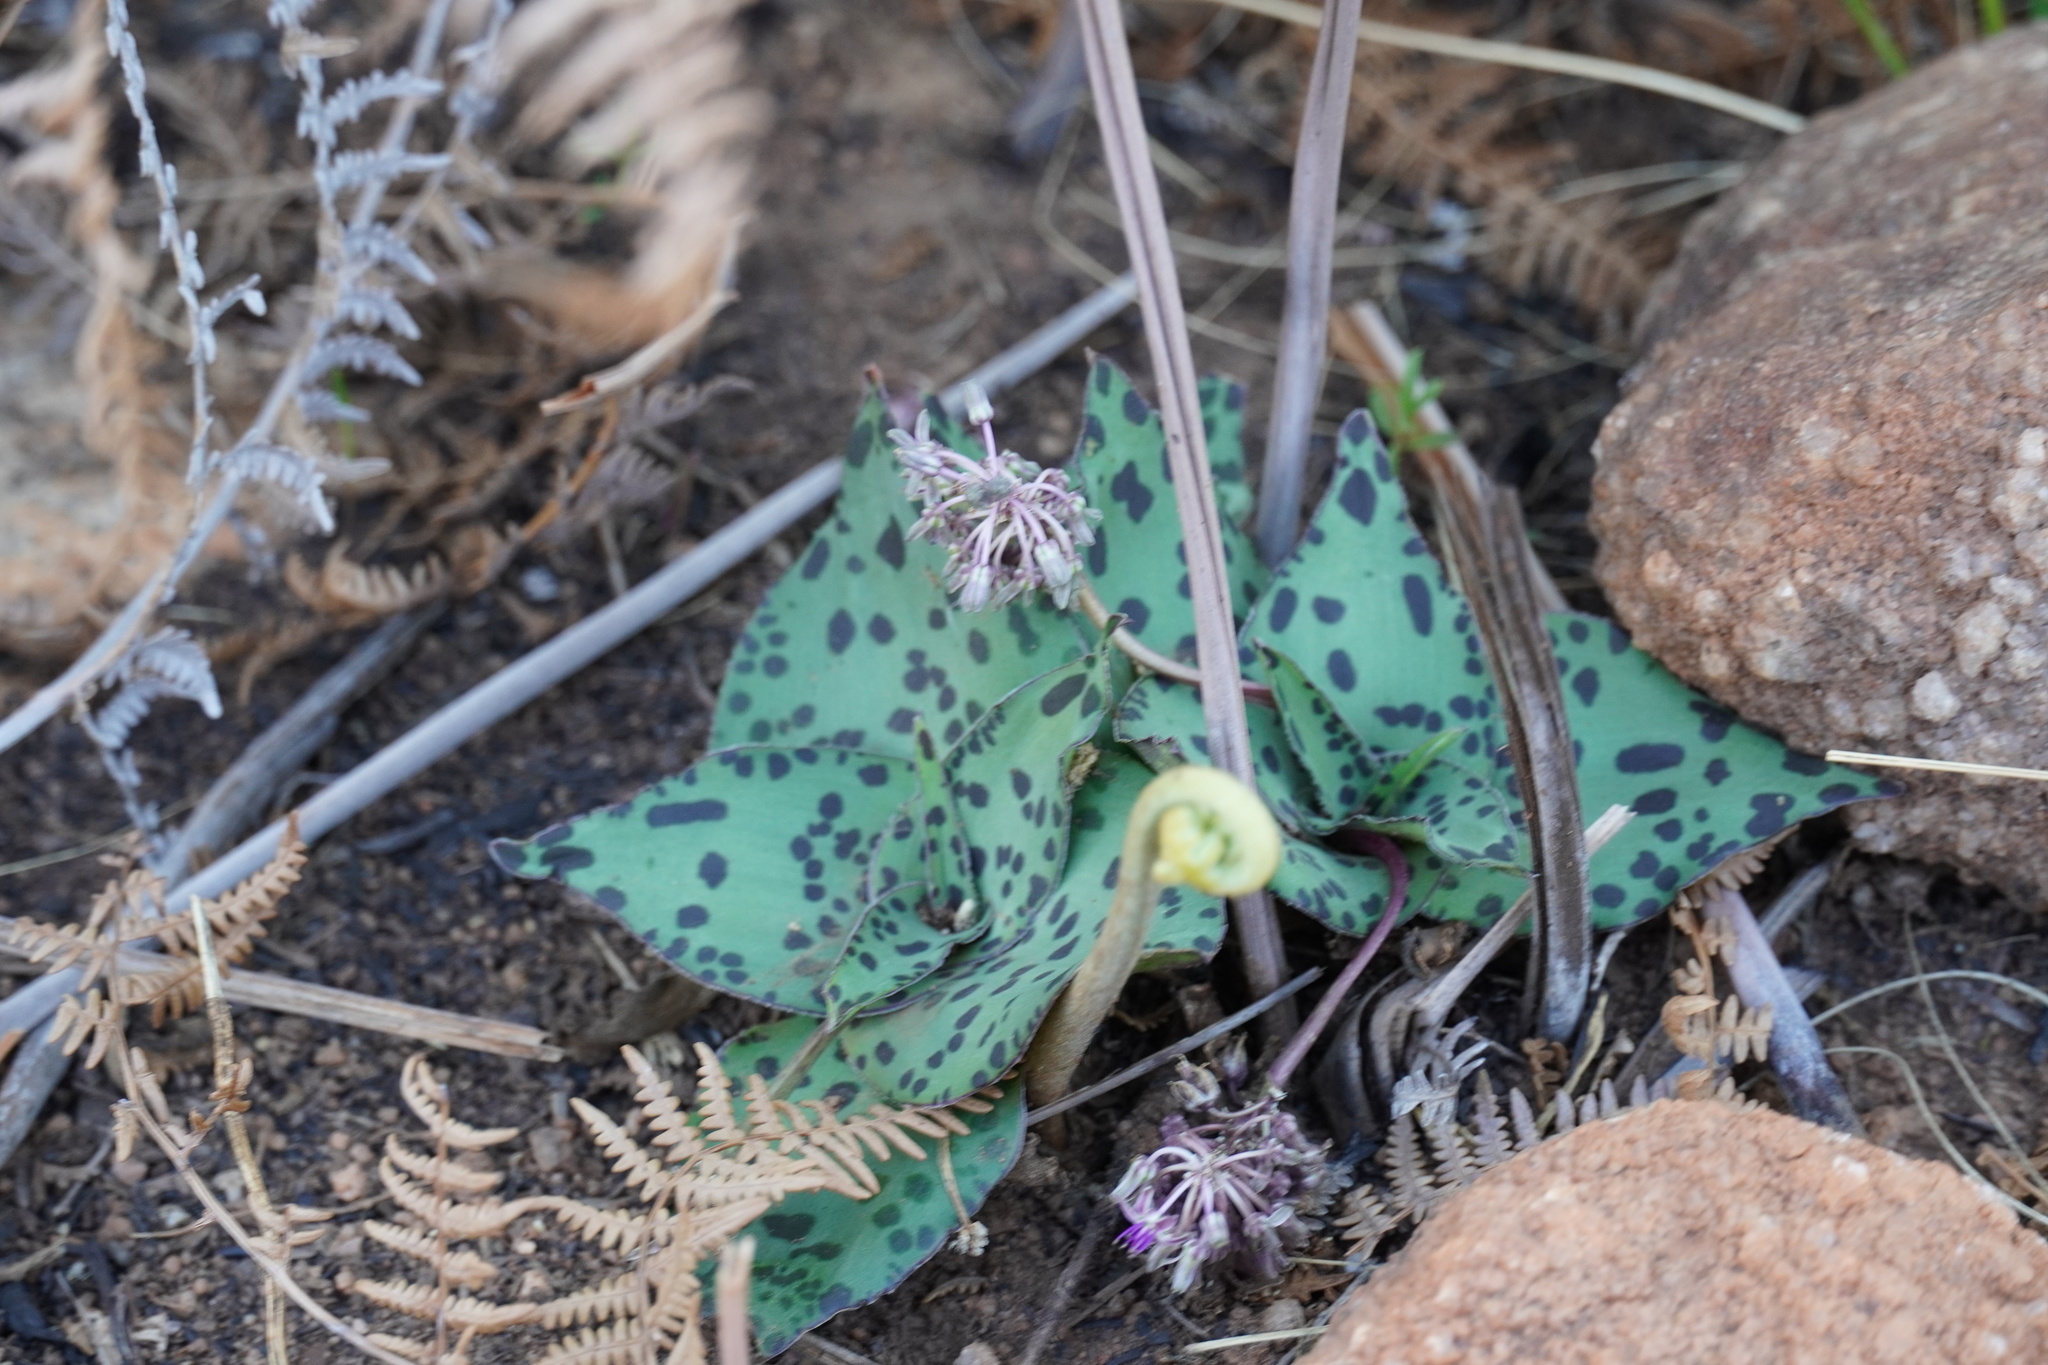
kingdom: Plantae
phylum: Tracheophyta
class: Liliopsida
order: Asparagales
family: Asparagaceae
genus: Ledebouria
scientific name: Ledebouria ovatifolia
